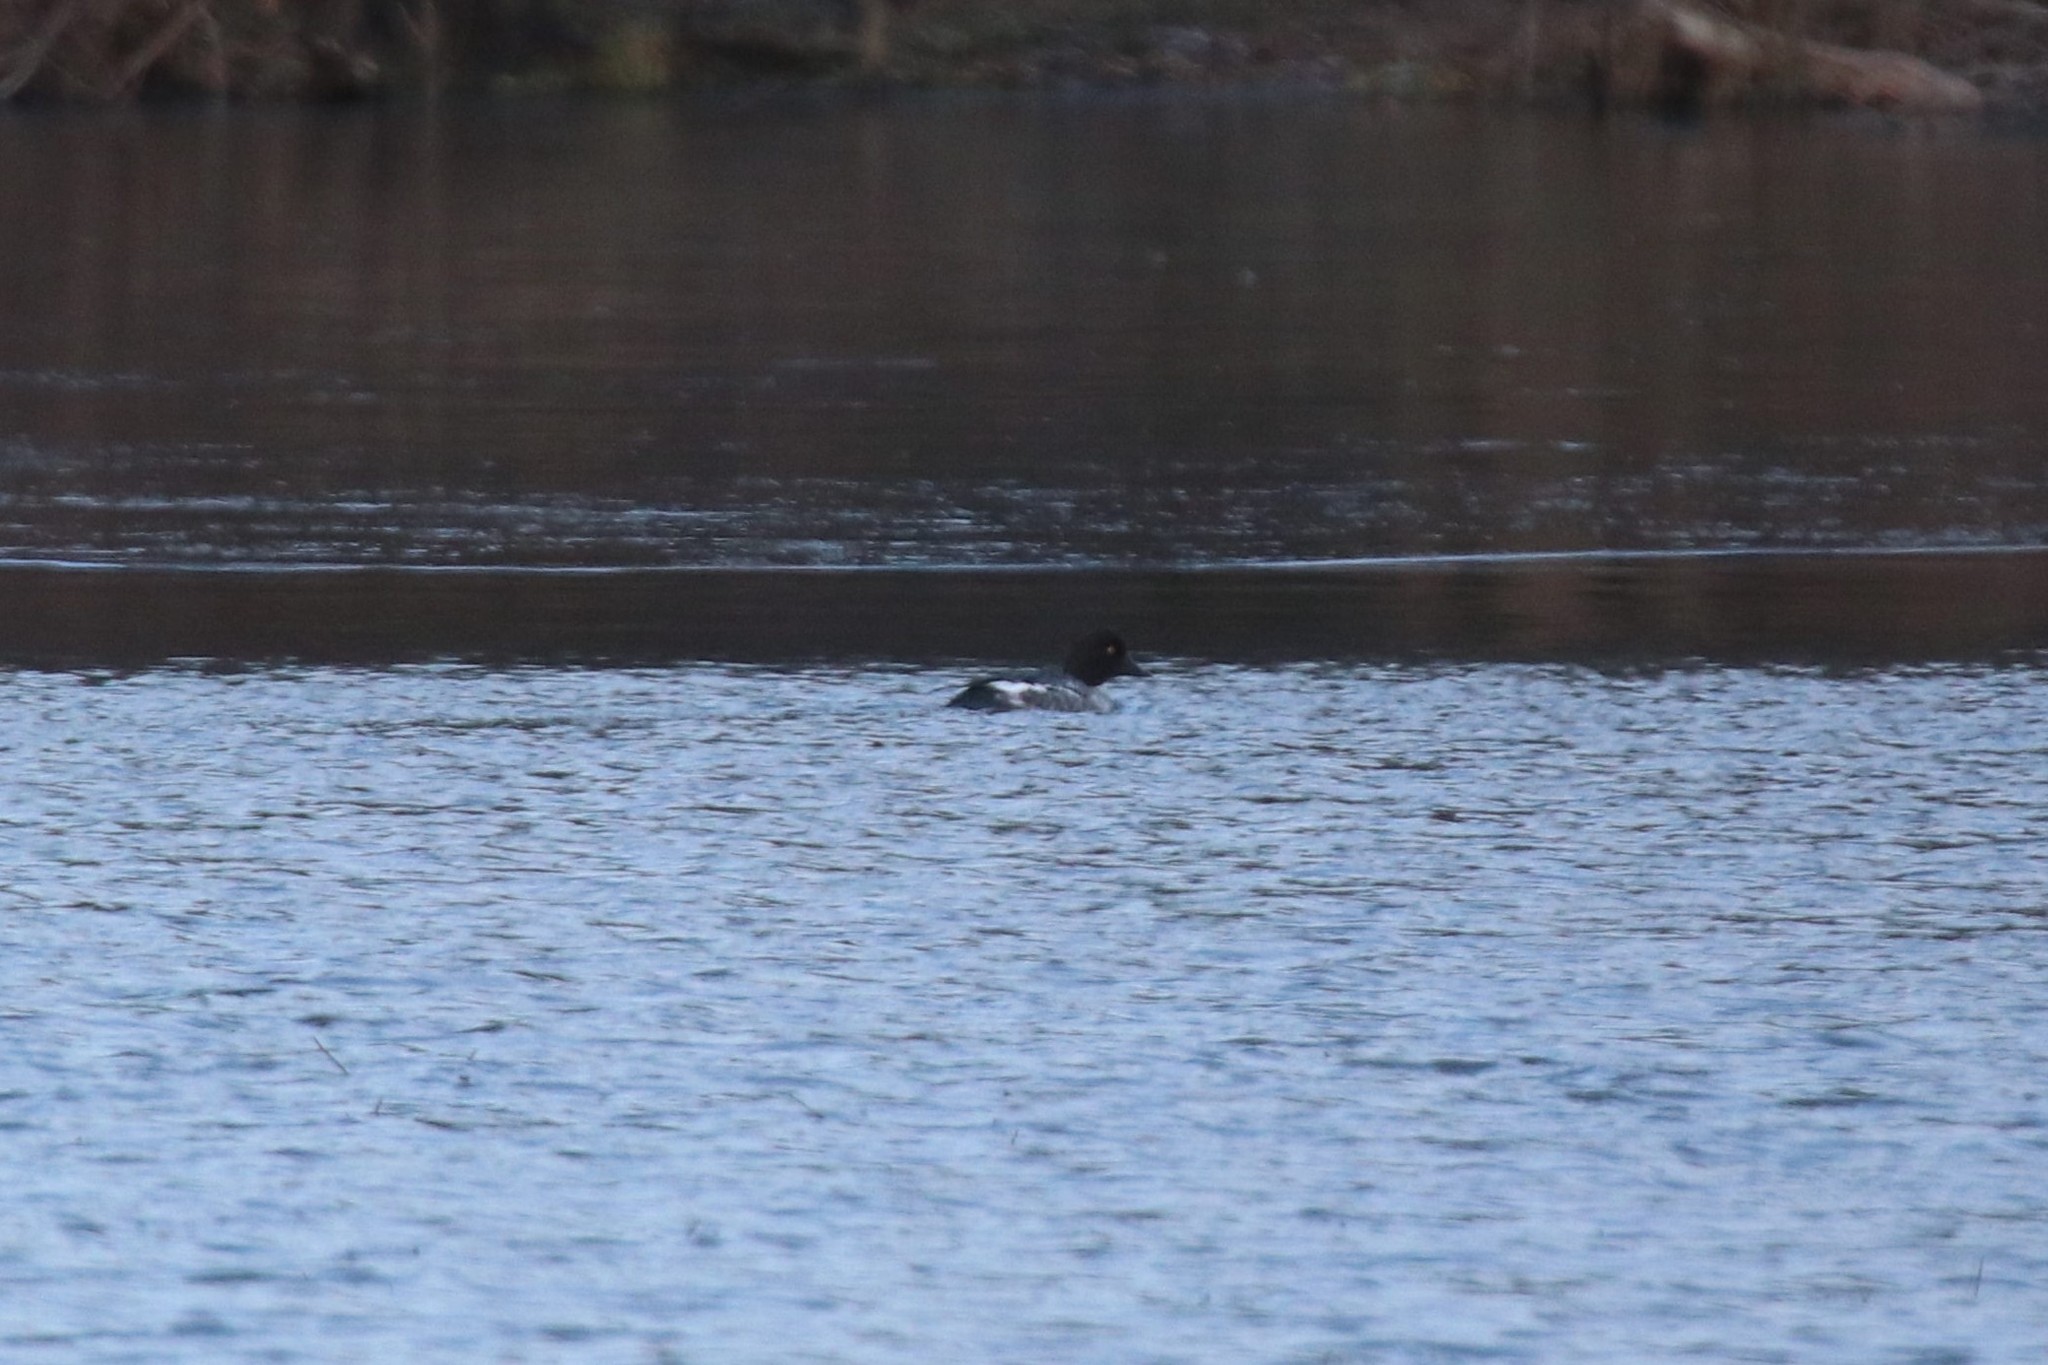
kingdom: Animalia
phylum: Chordata
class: Aves
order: Anseriformes
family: Anatidae
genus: Bucephala
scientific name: Bucephala clangula
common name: Common goldeneye
